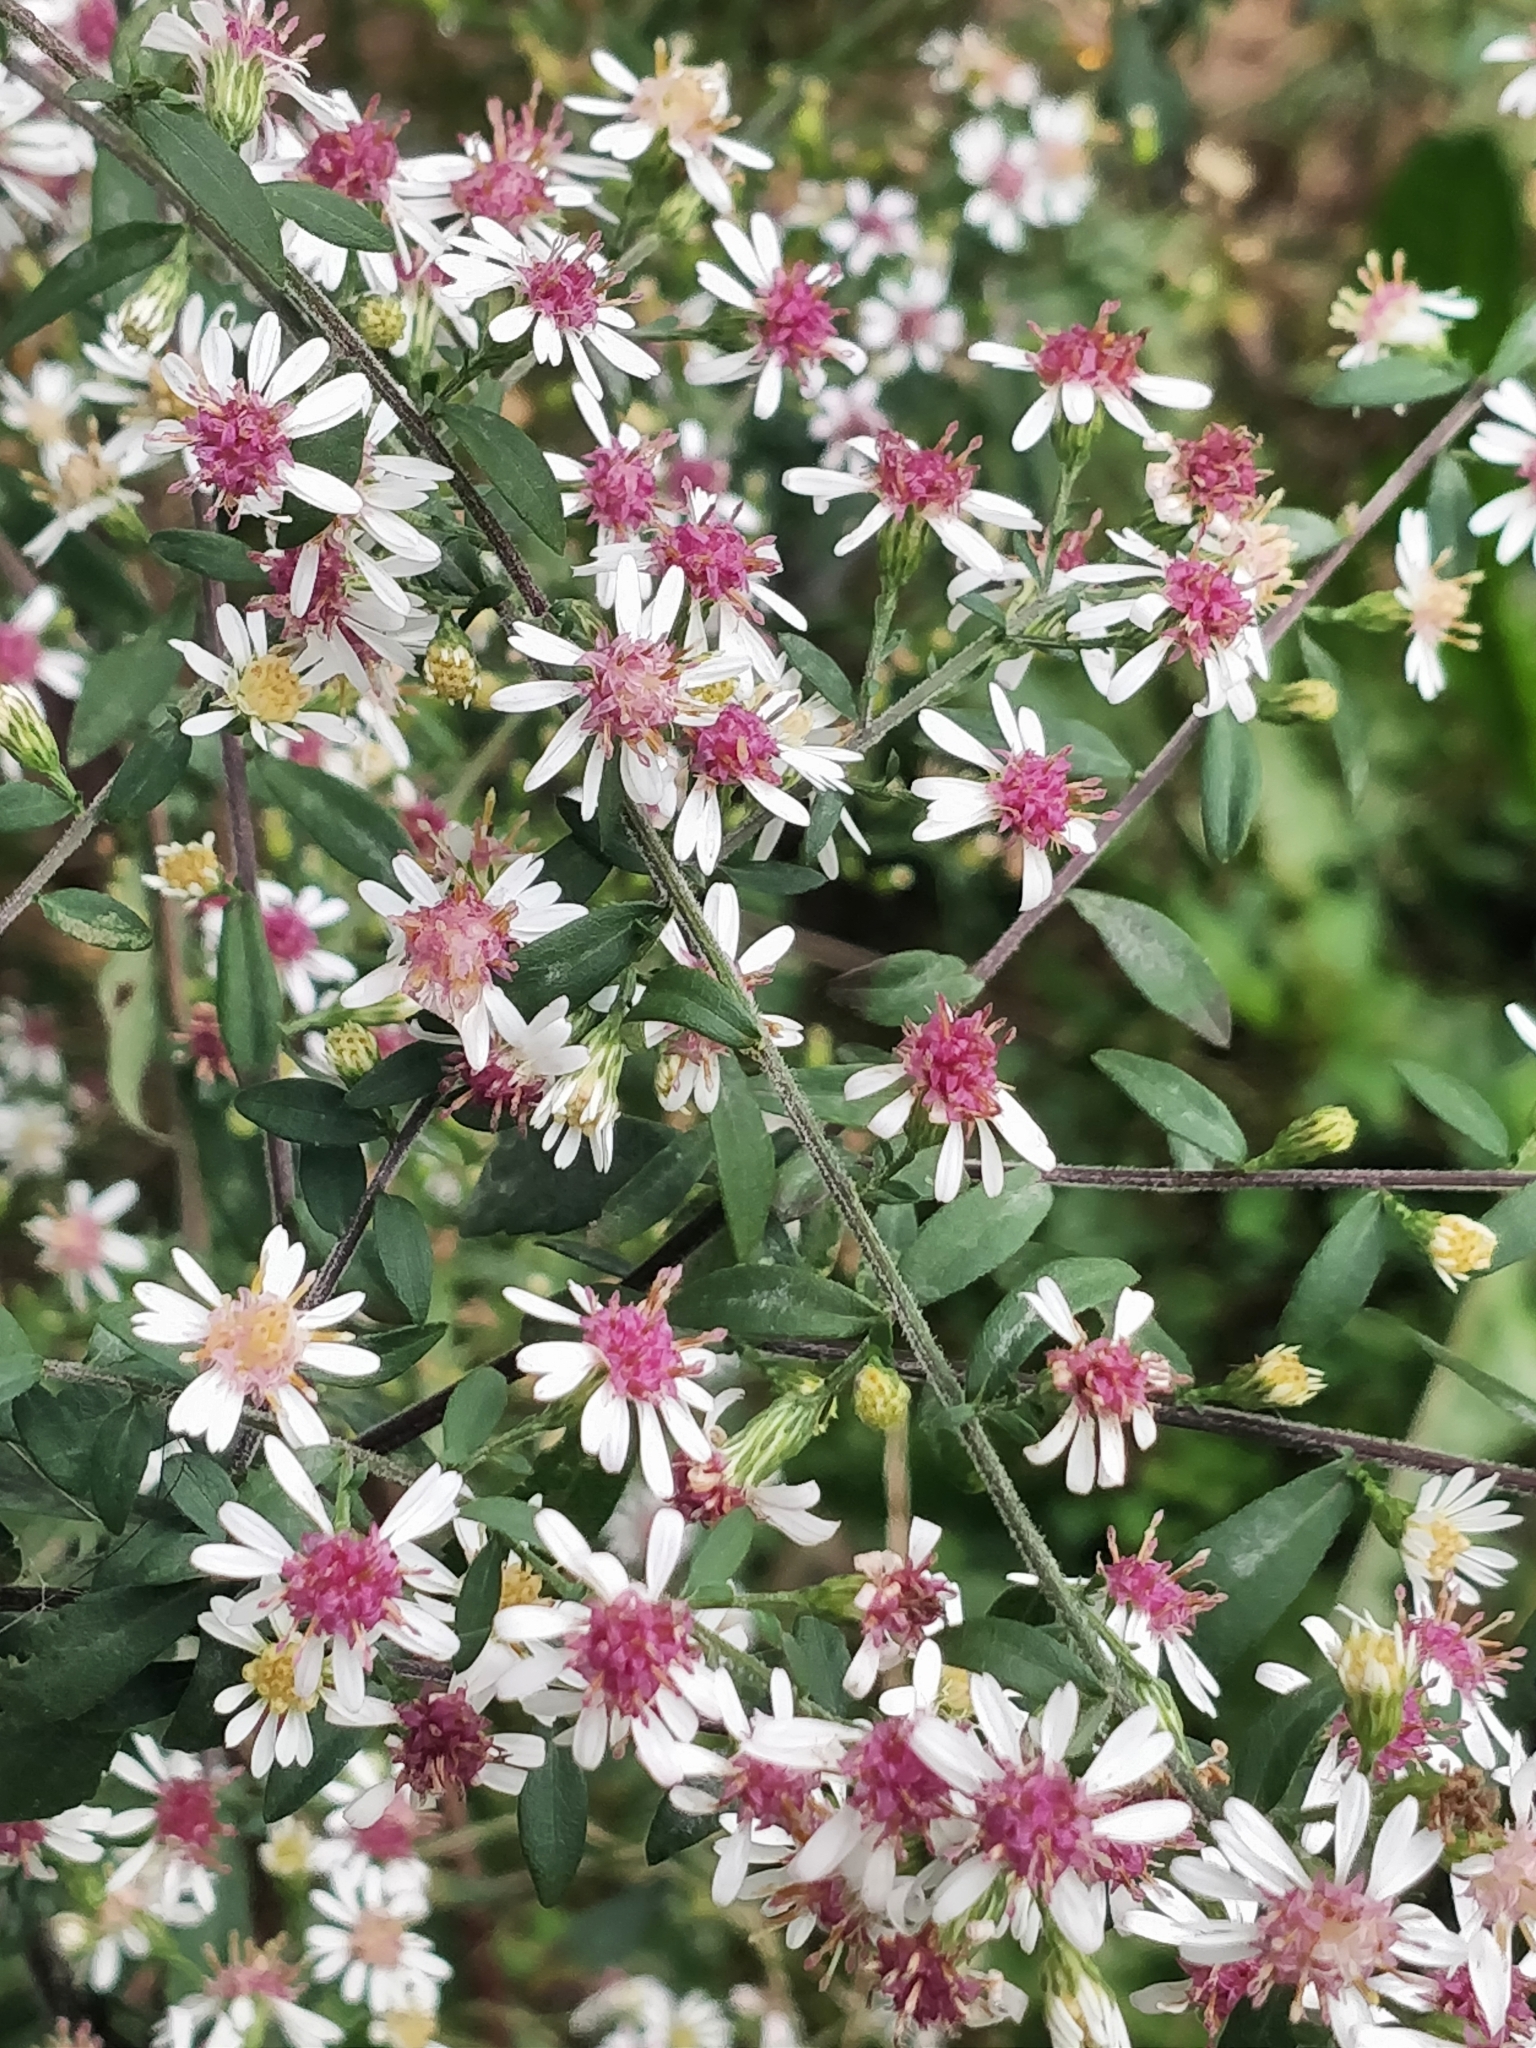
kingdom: Plantae
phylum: Tracheophyta
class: Magnoliopsida
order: Asterales
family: Asteraceae
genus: Symphyotrichum
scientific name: Symphyotrichum lateriflorum
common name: Calico aster
